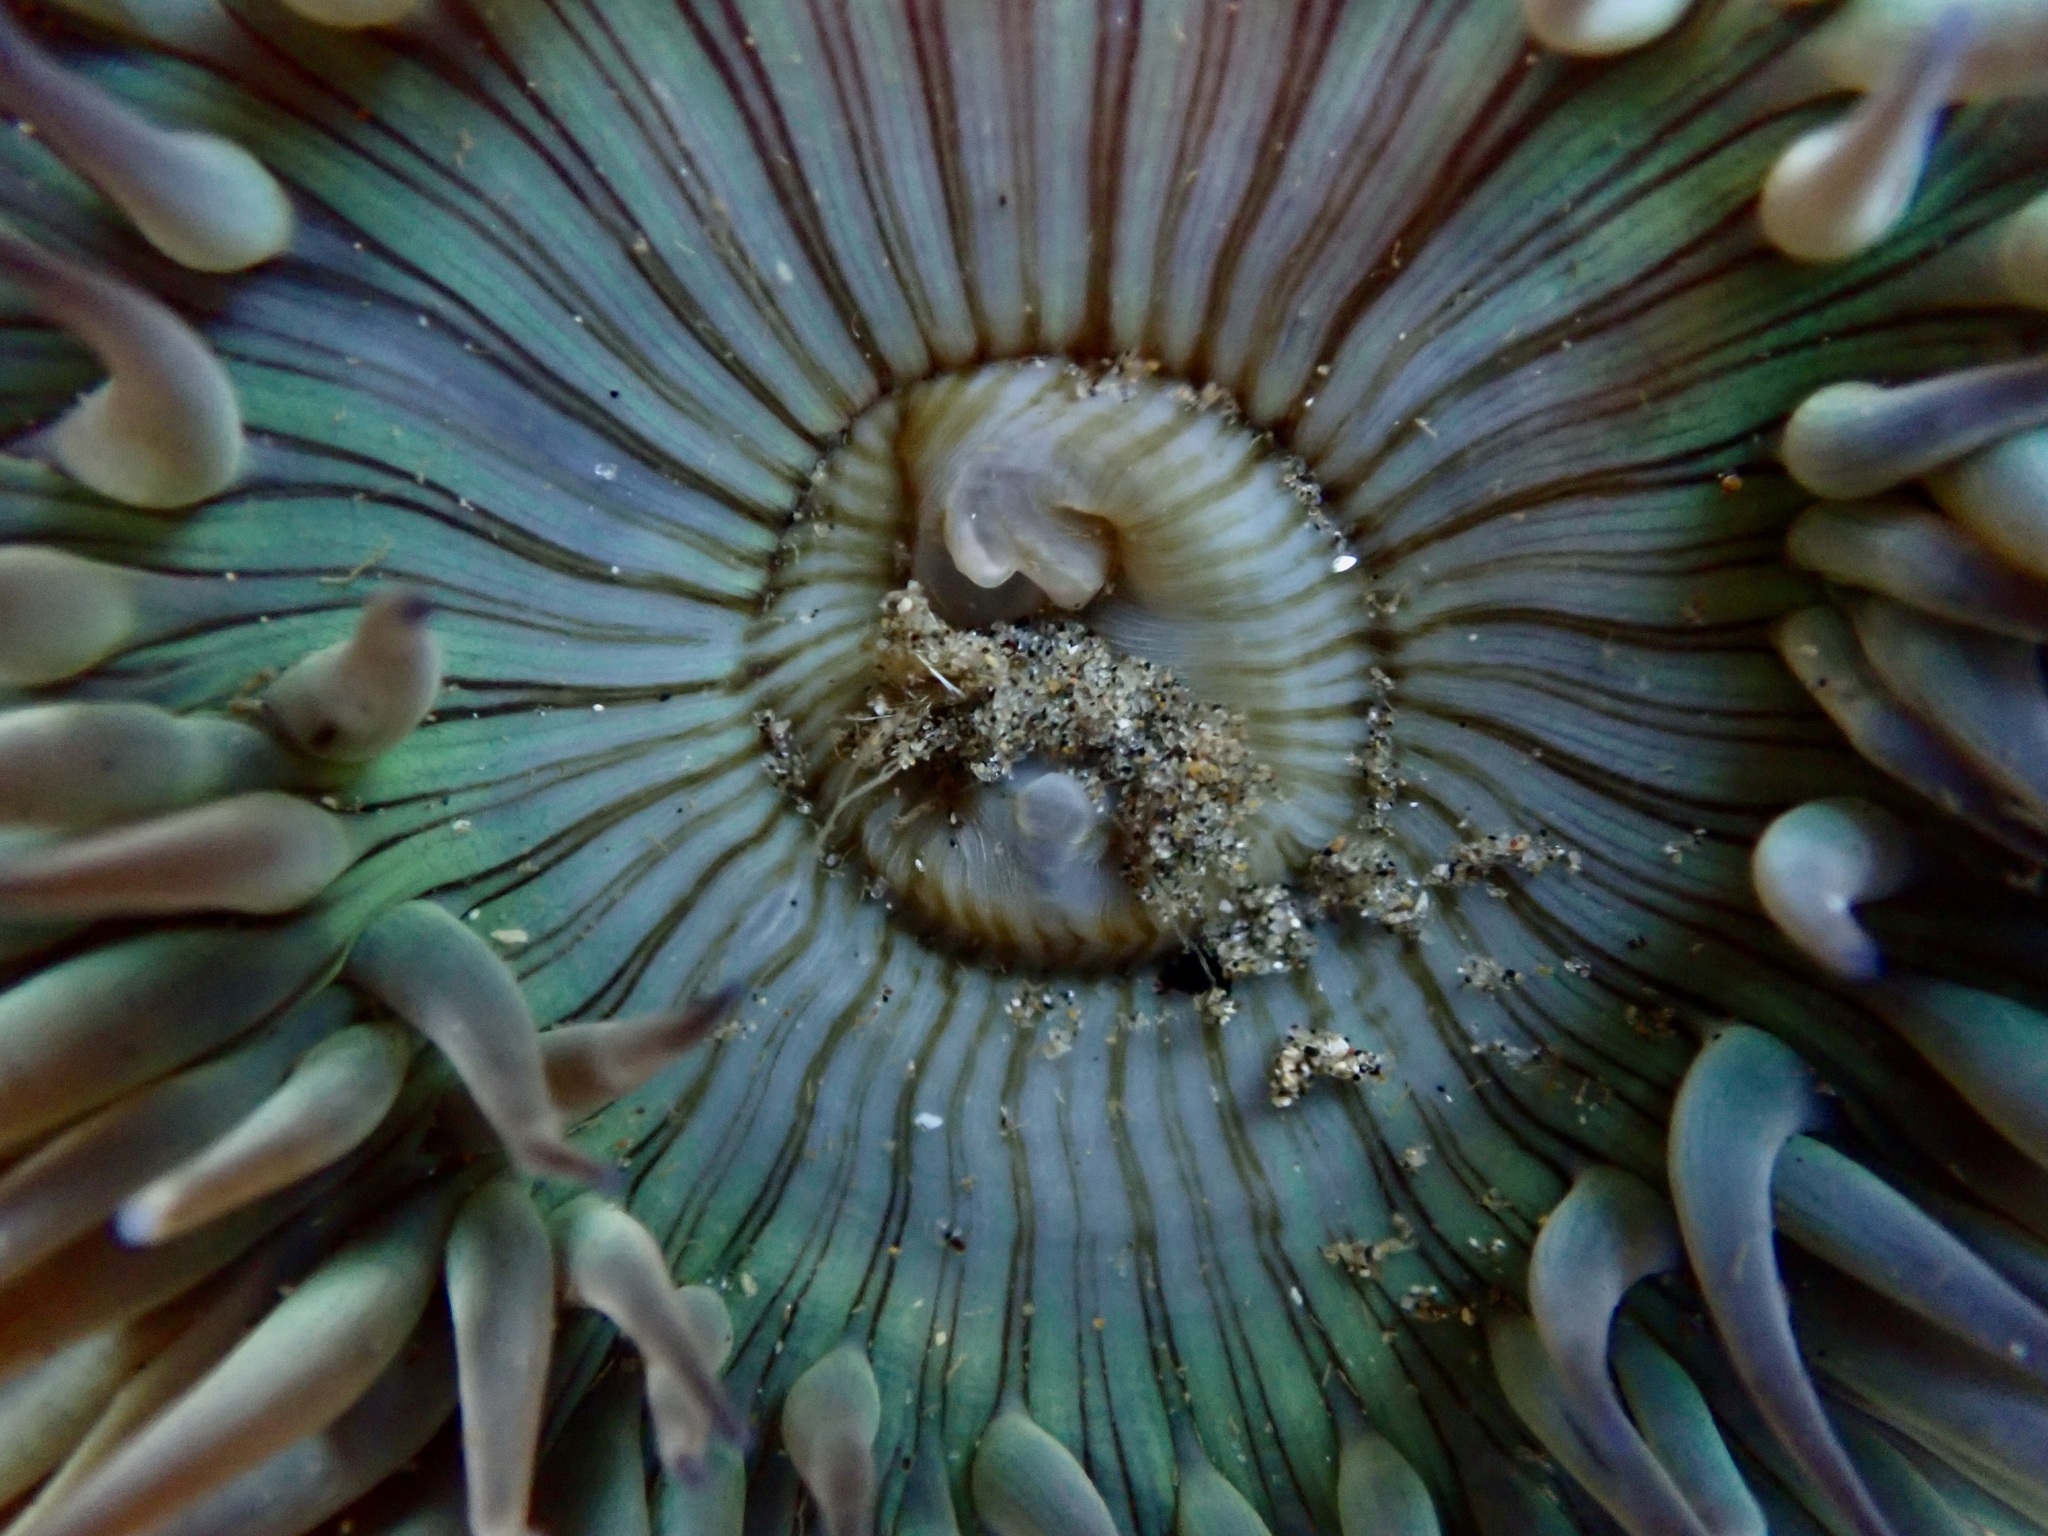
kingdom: Animalia
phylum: Cnidaria
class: Anthozoa
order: Actiniaria
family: Actiniidae
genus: Anthopleura
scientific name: Anthopleura sola
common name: Sun anemone
